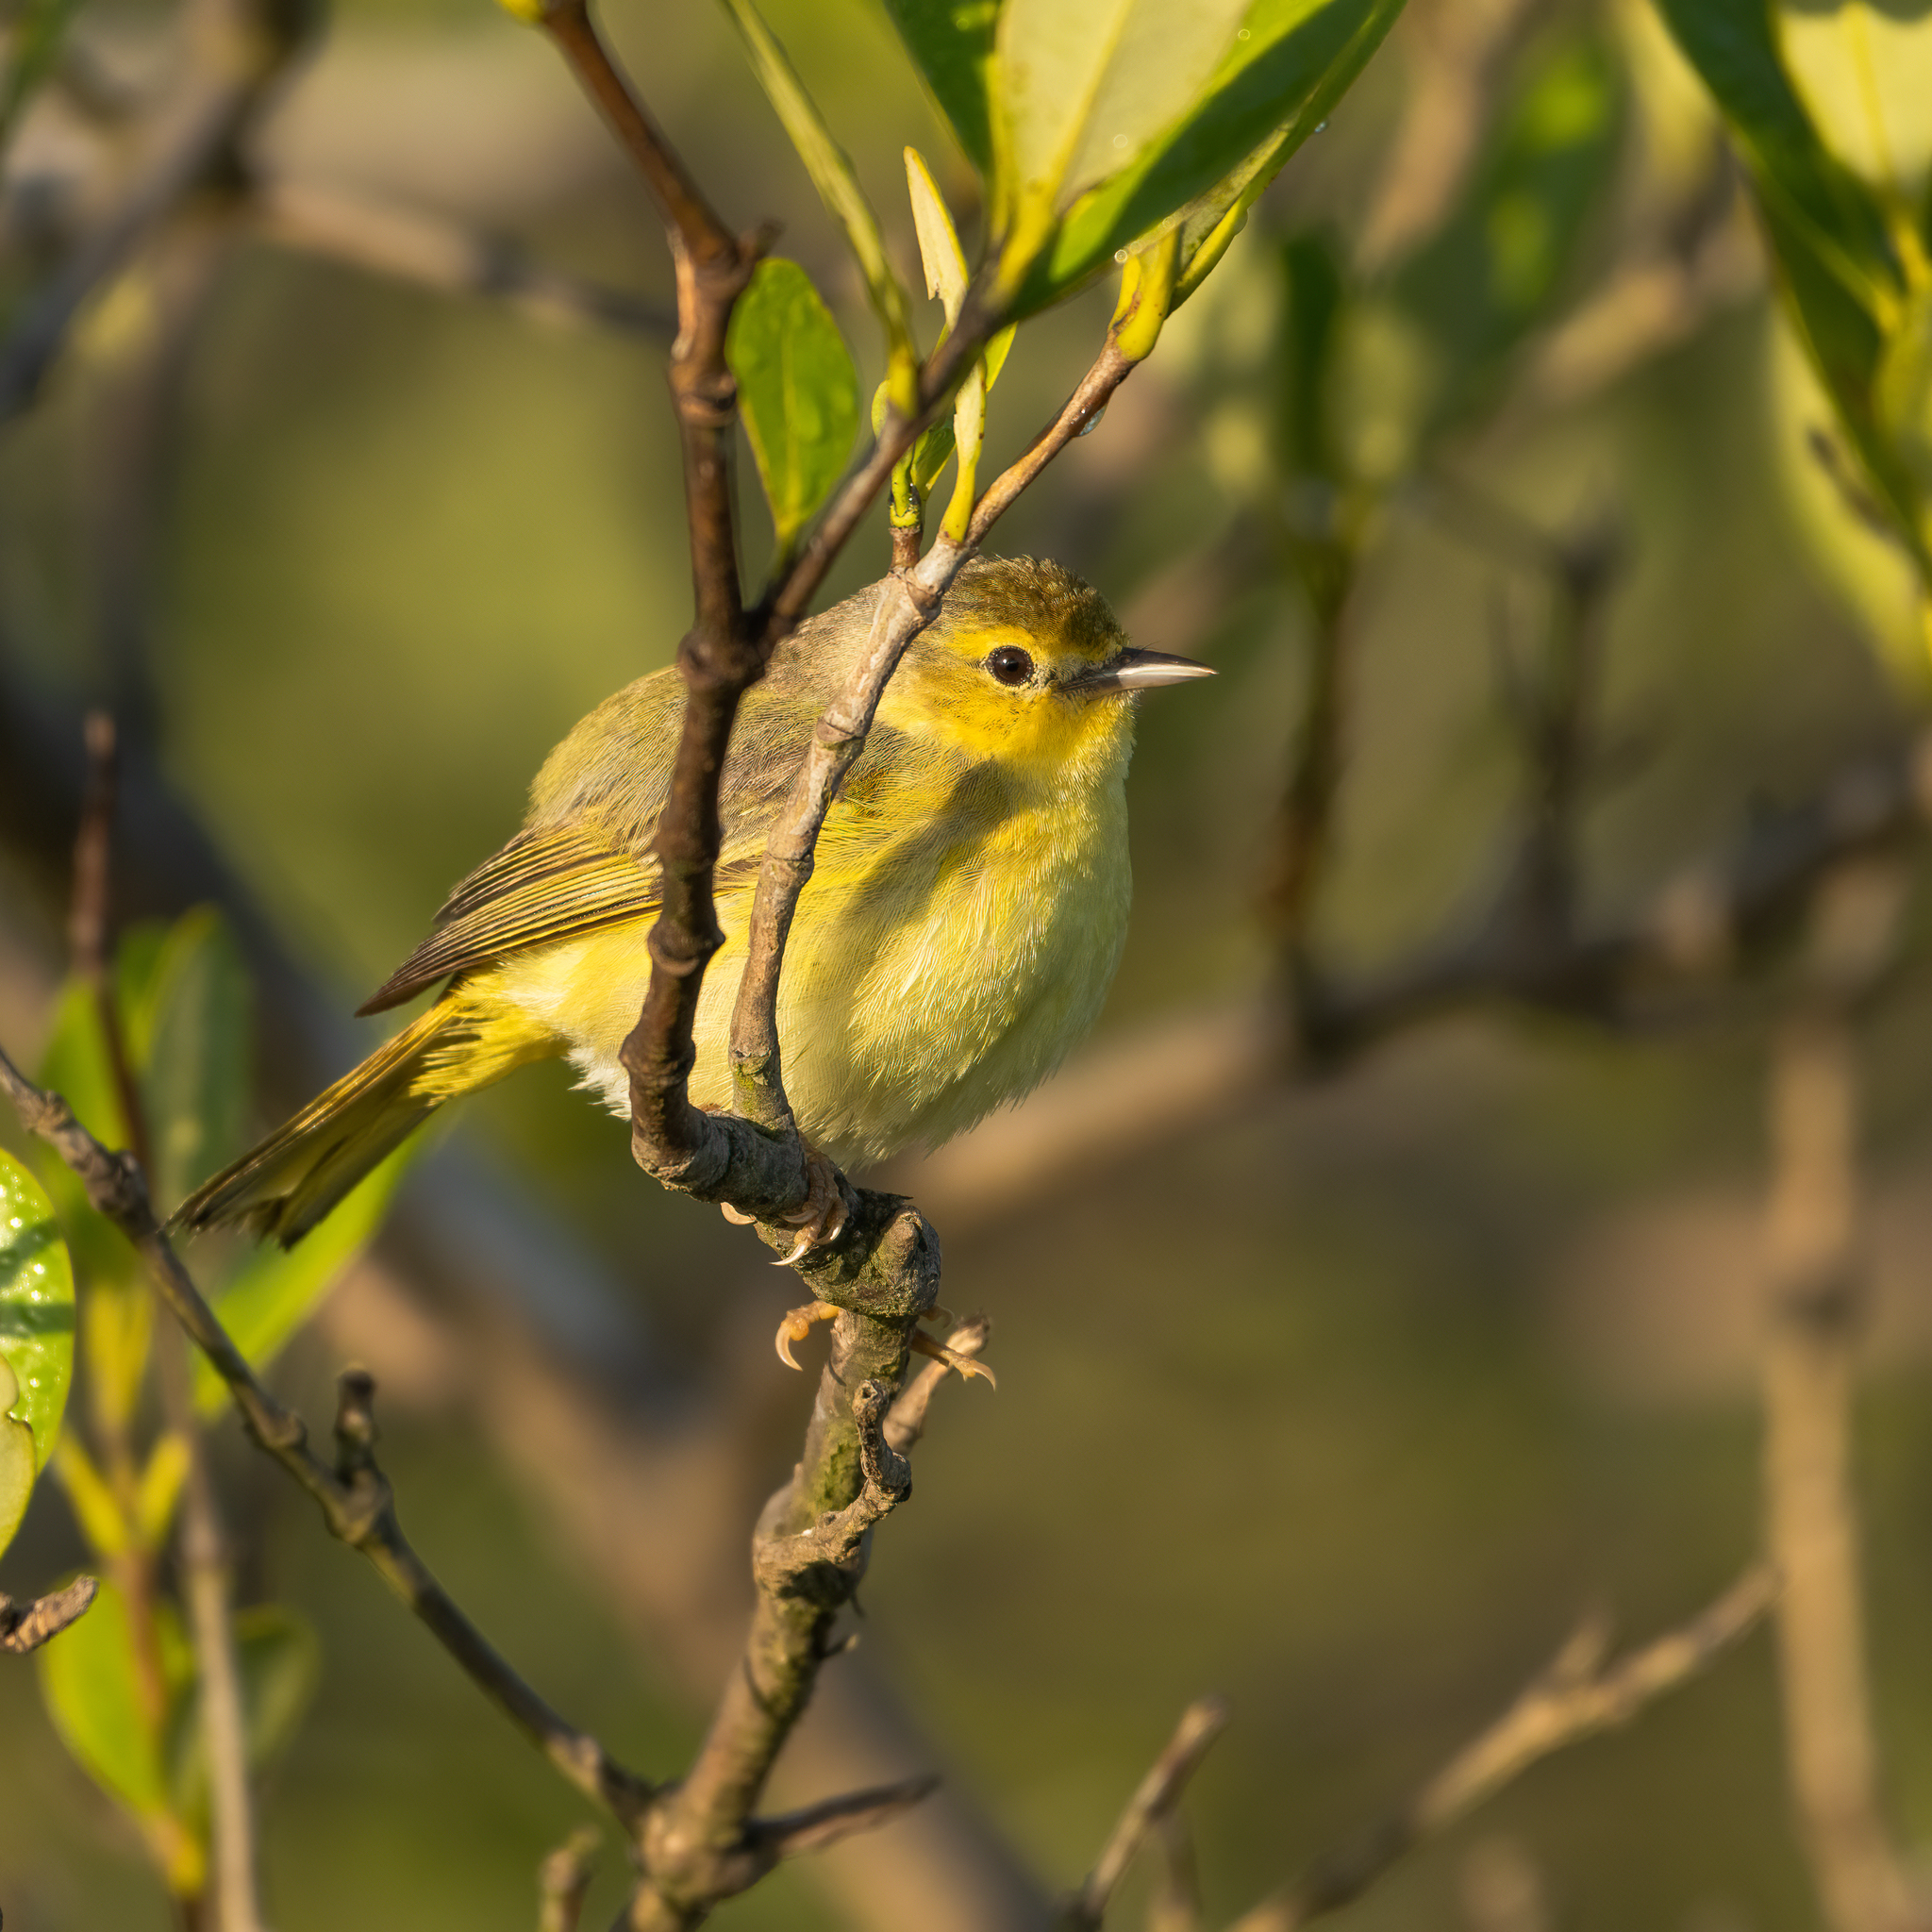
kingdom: Animalia
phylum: Chordata
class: Aves
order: Passeriformes
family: Parulidae
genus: Setophaga
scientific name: Setophaga petechia
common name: Yellow warbler
